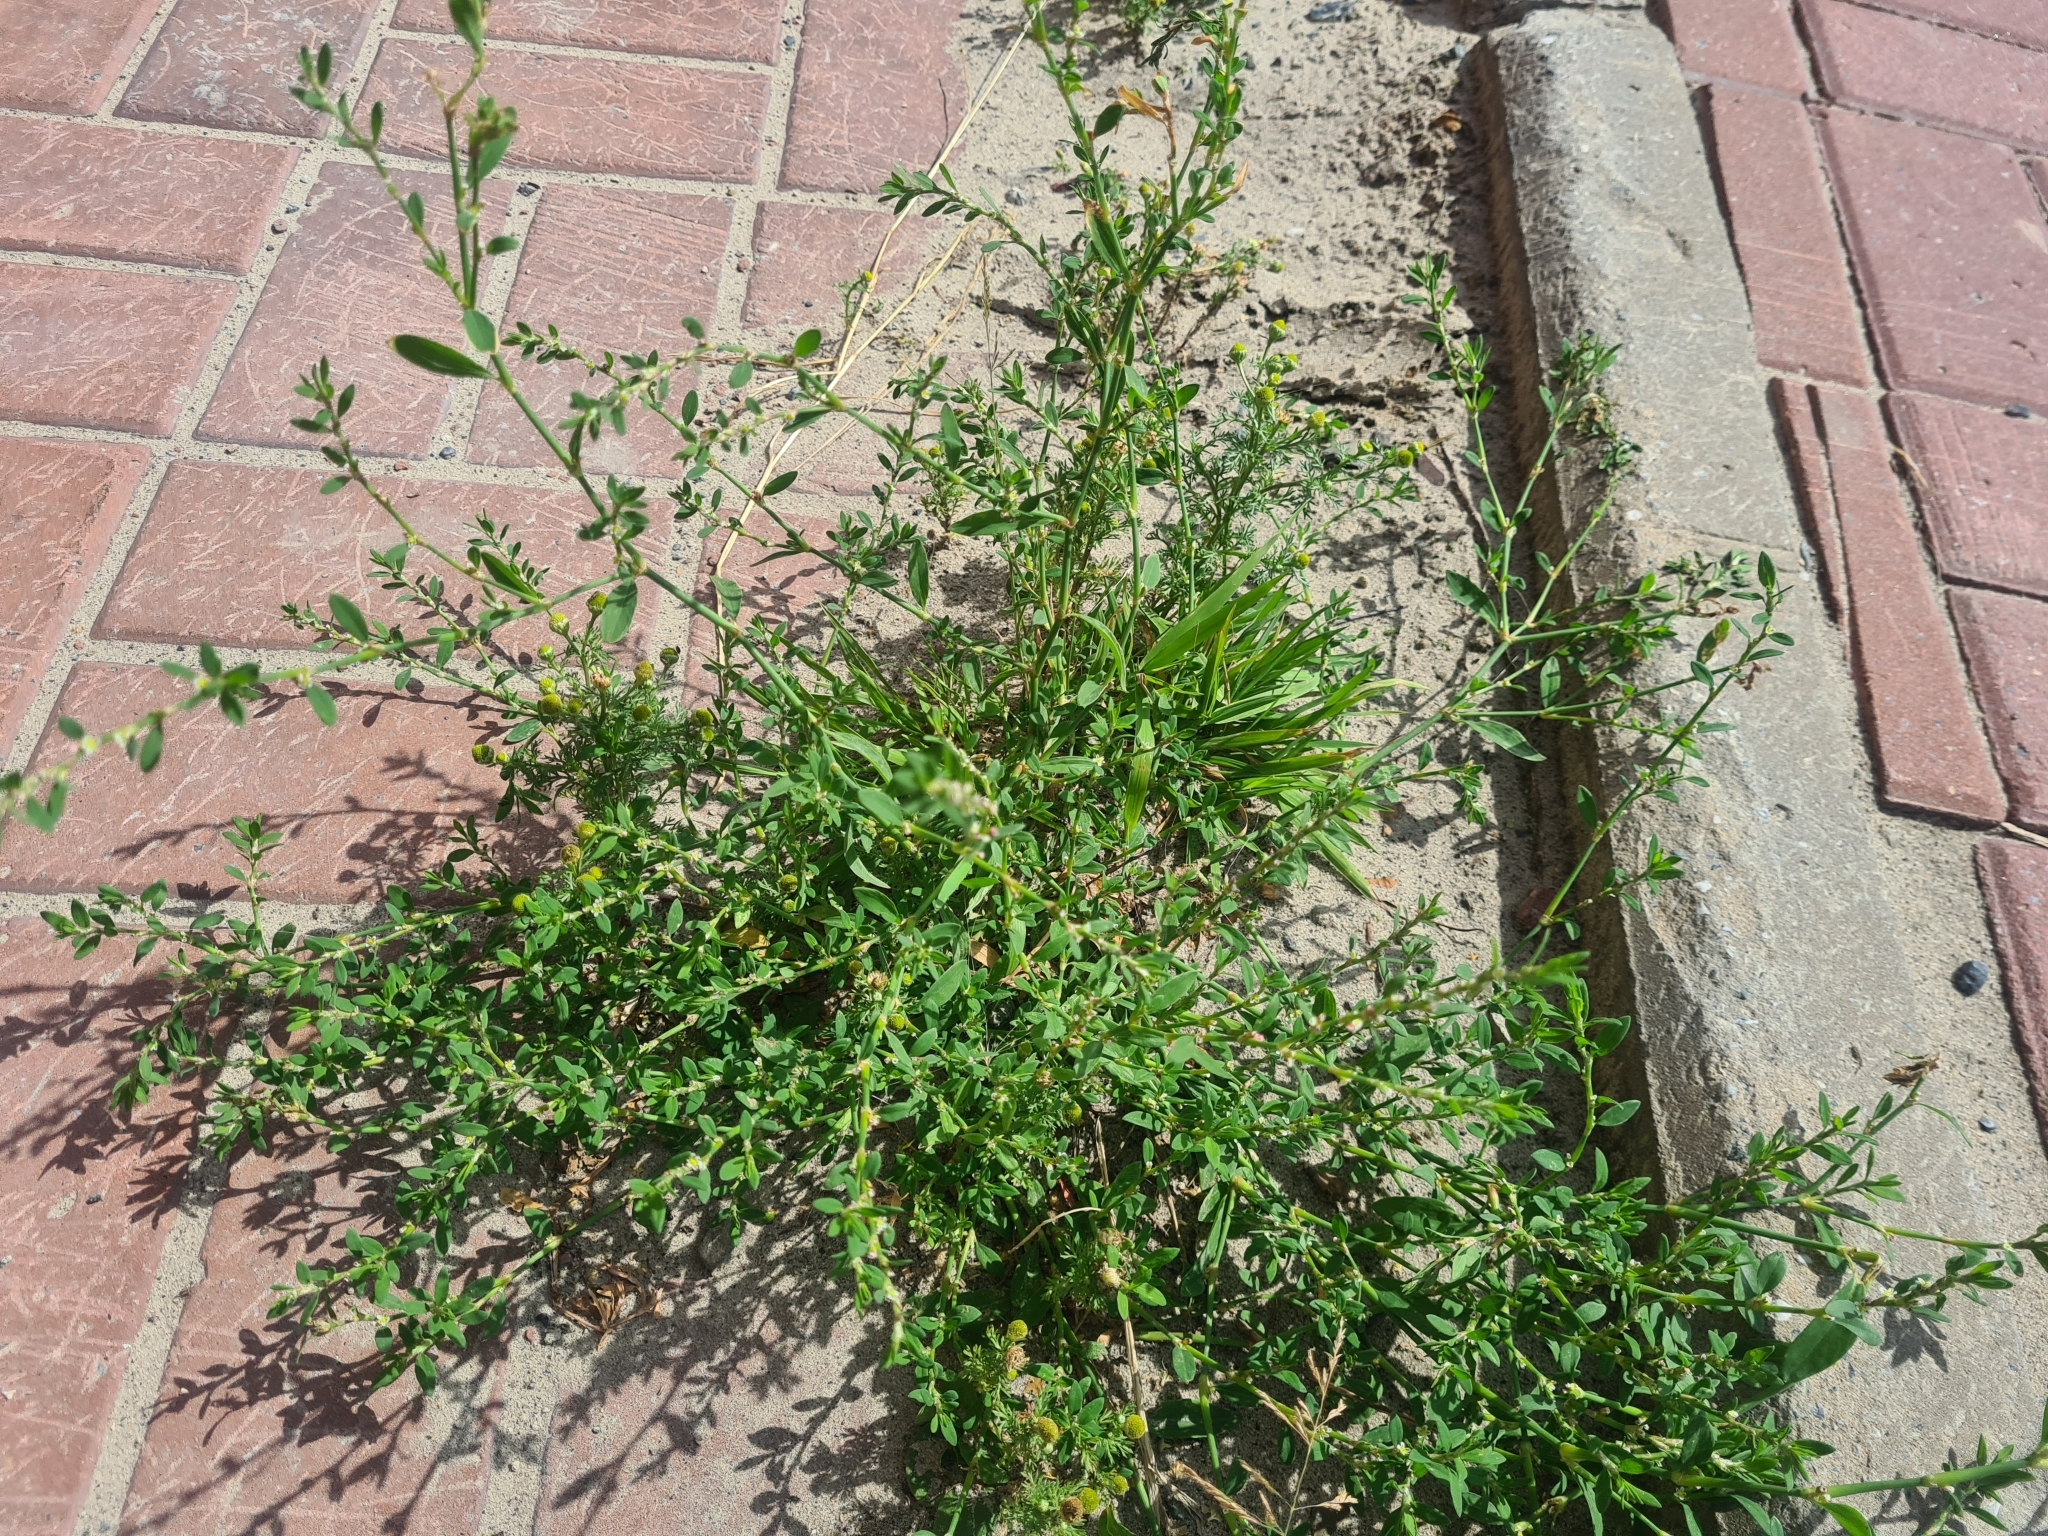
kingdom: Plantae
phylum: Tracheophyta
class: Magnoliopsida
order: Caryophyllales
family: Polygonaceae
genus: Polygonum
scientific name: Polygonum
